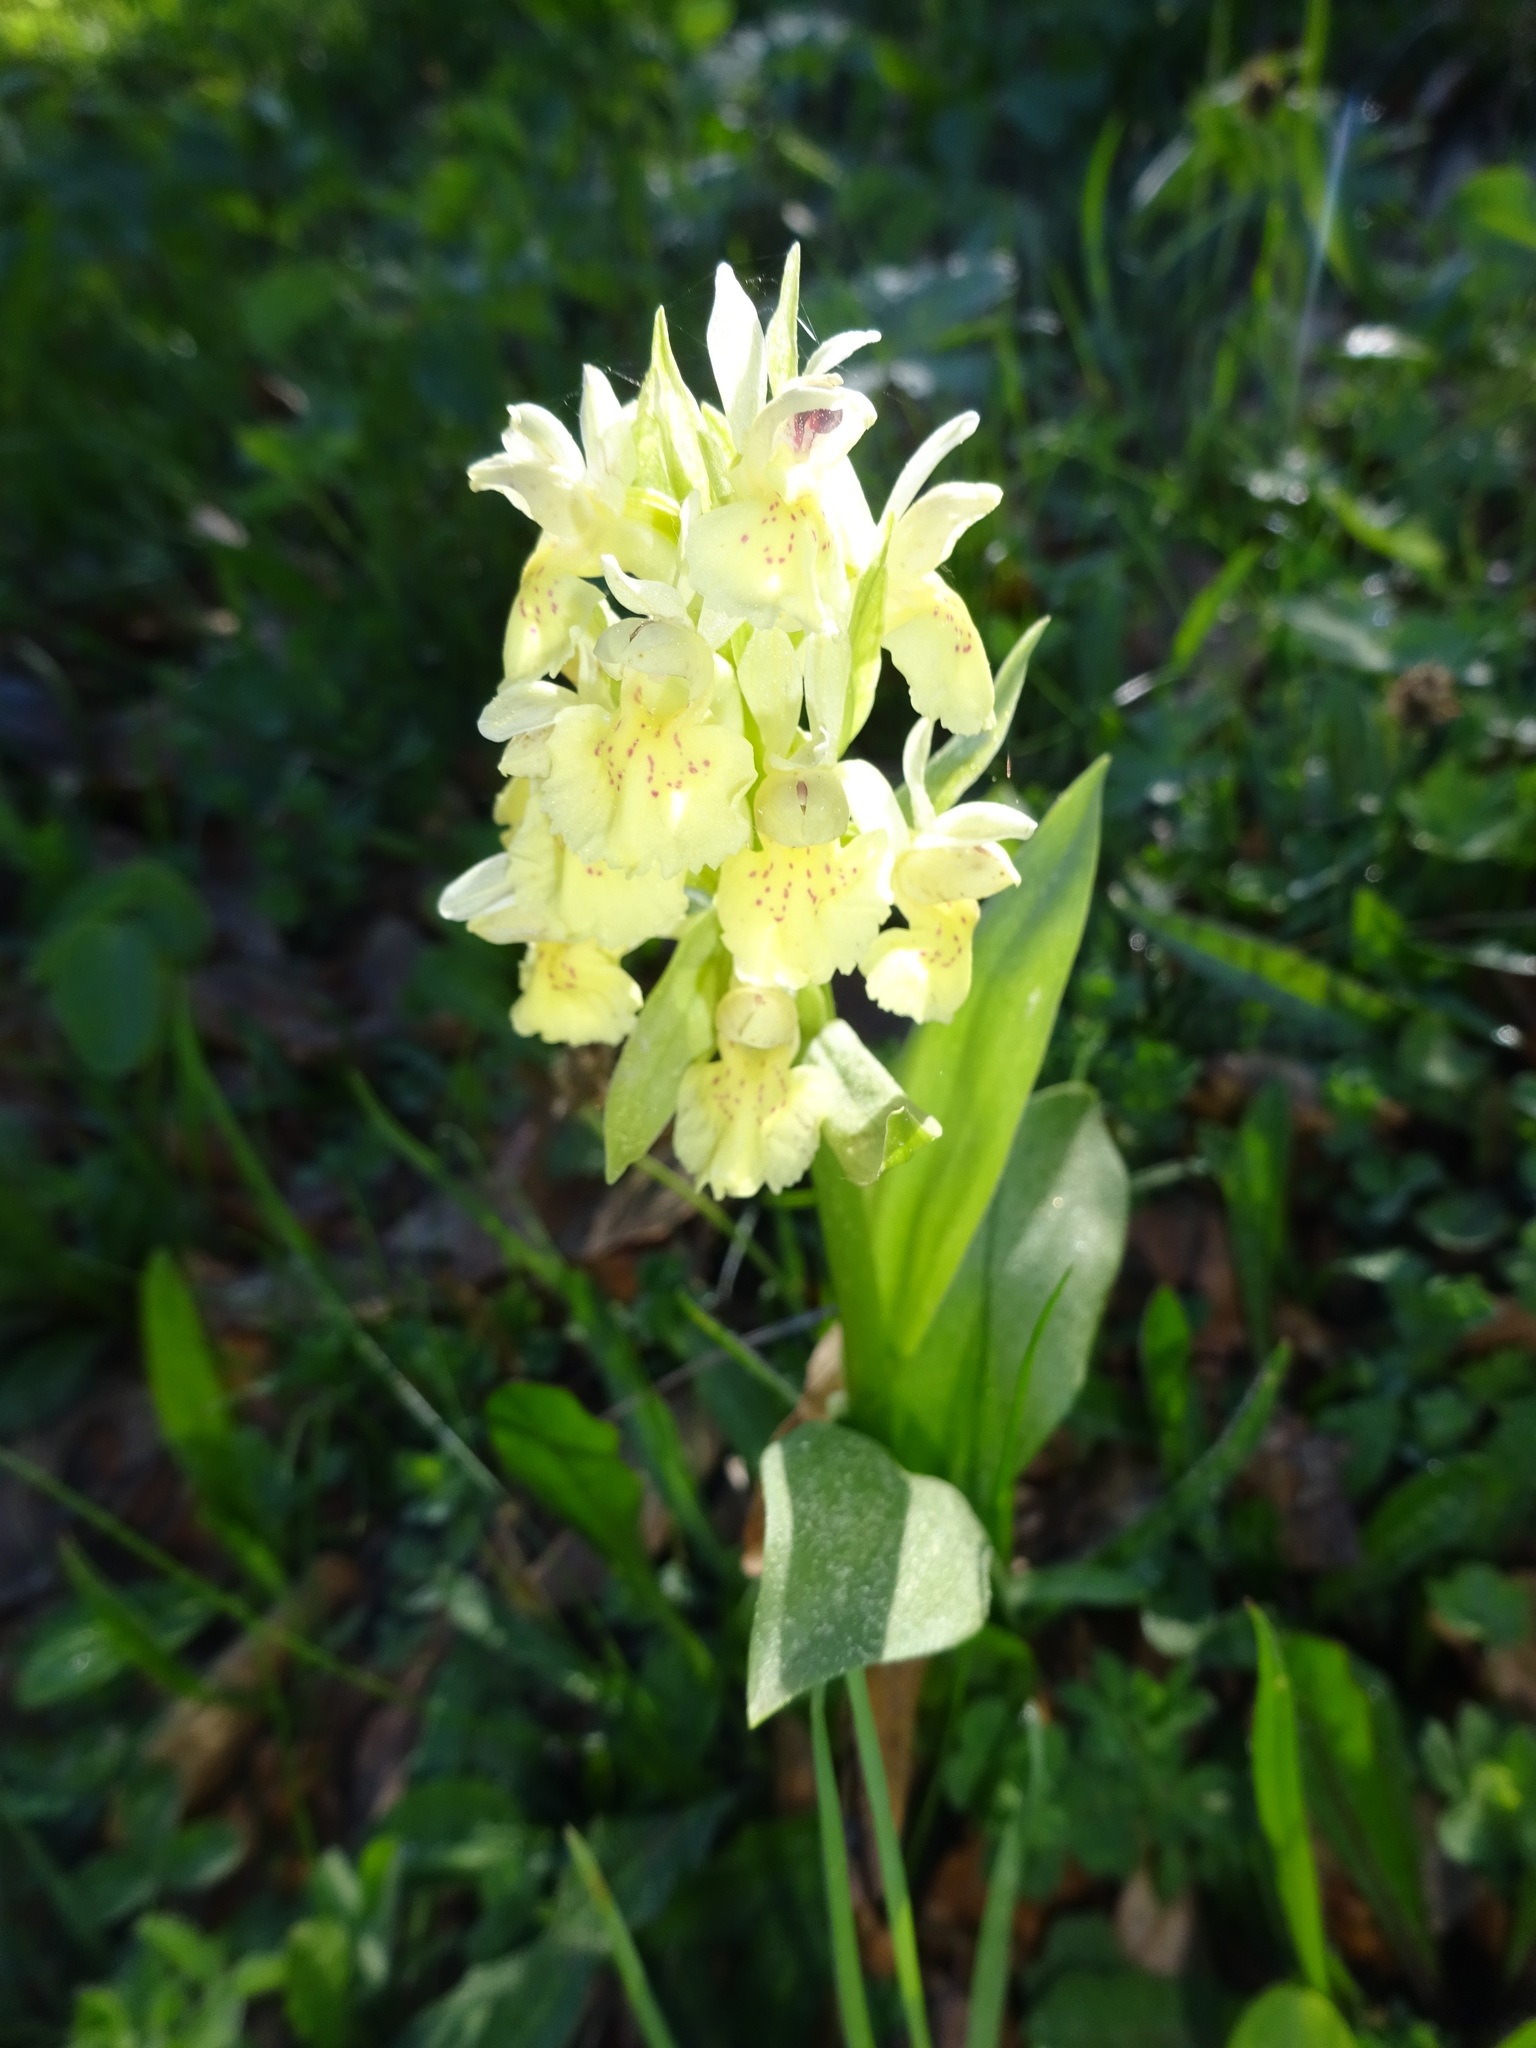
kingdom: Plantae
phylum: Tracheophyta
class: Liliopsida
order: Asparagales
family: Orchidaceae
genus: Dactylorhiza
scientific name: Dactylorhiza sambucina
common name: Elder-flowered orchid
